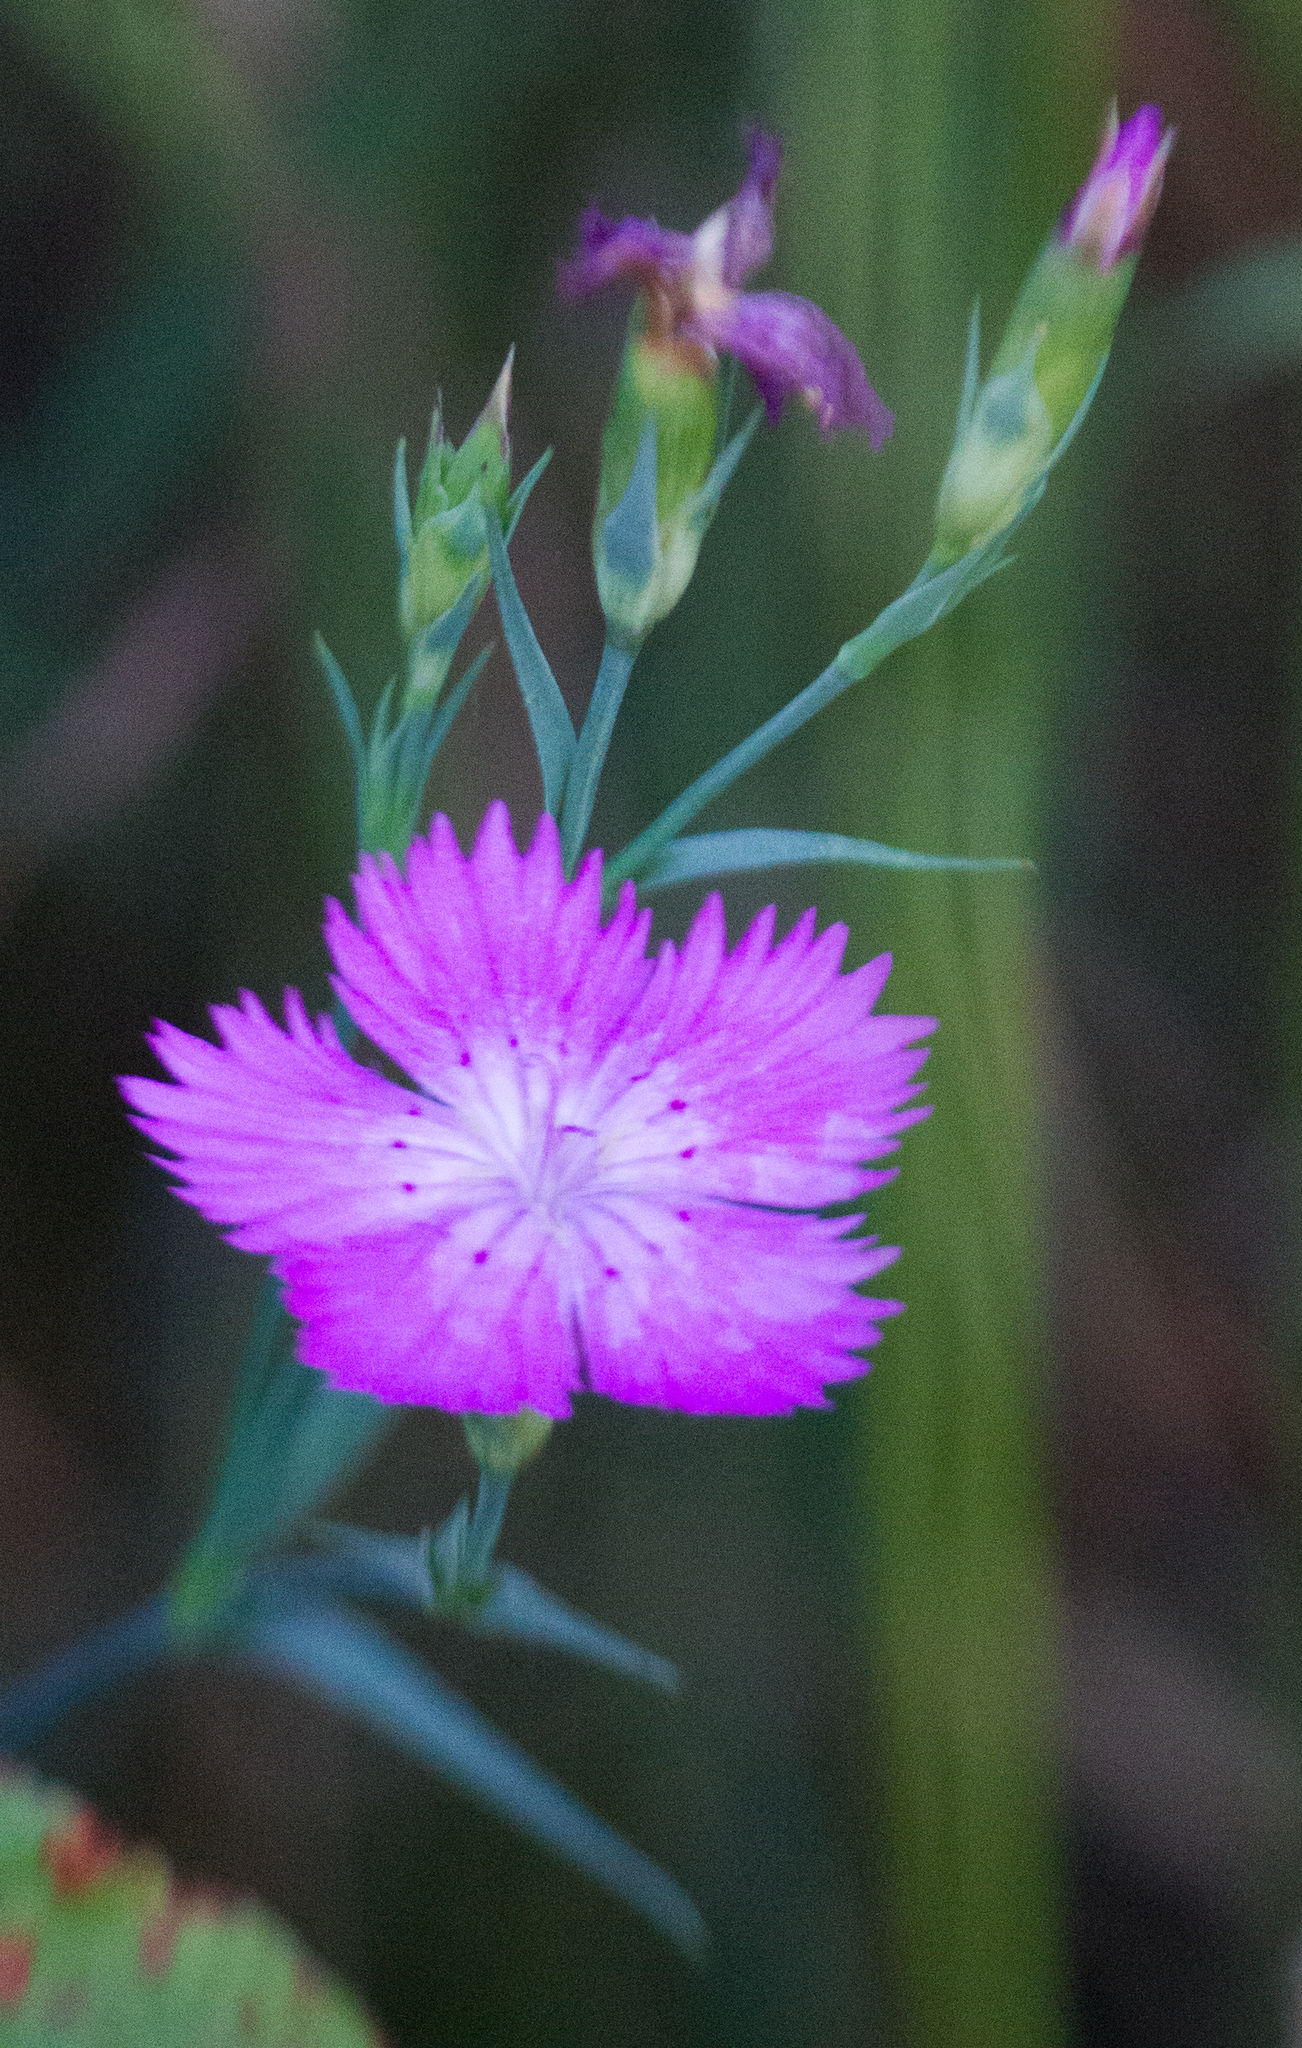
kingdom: Plantae
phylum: Tracheophyta
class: Magnoliopsida
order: Caryophyllales
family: Caryophyllaceae
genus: Dianthus
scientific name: Dianthus chinensis
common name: Rainbow pink
